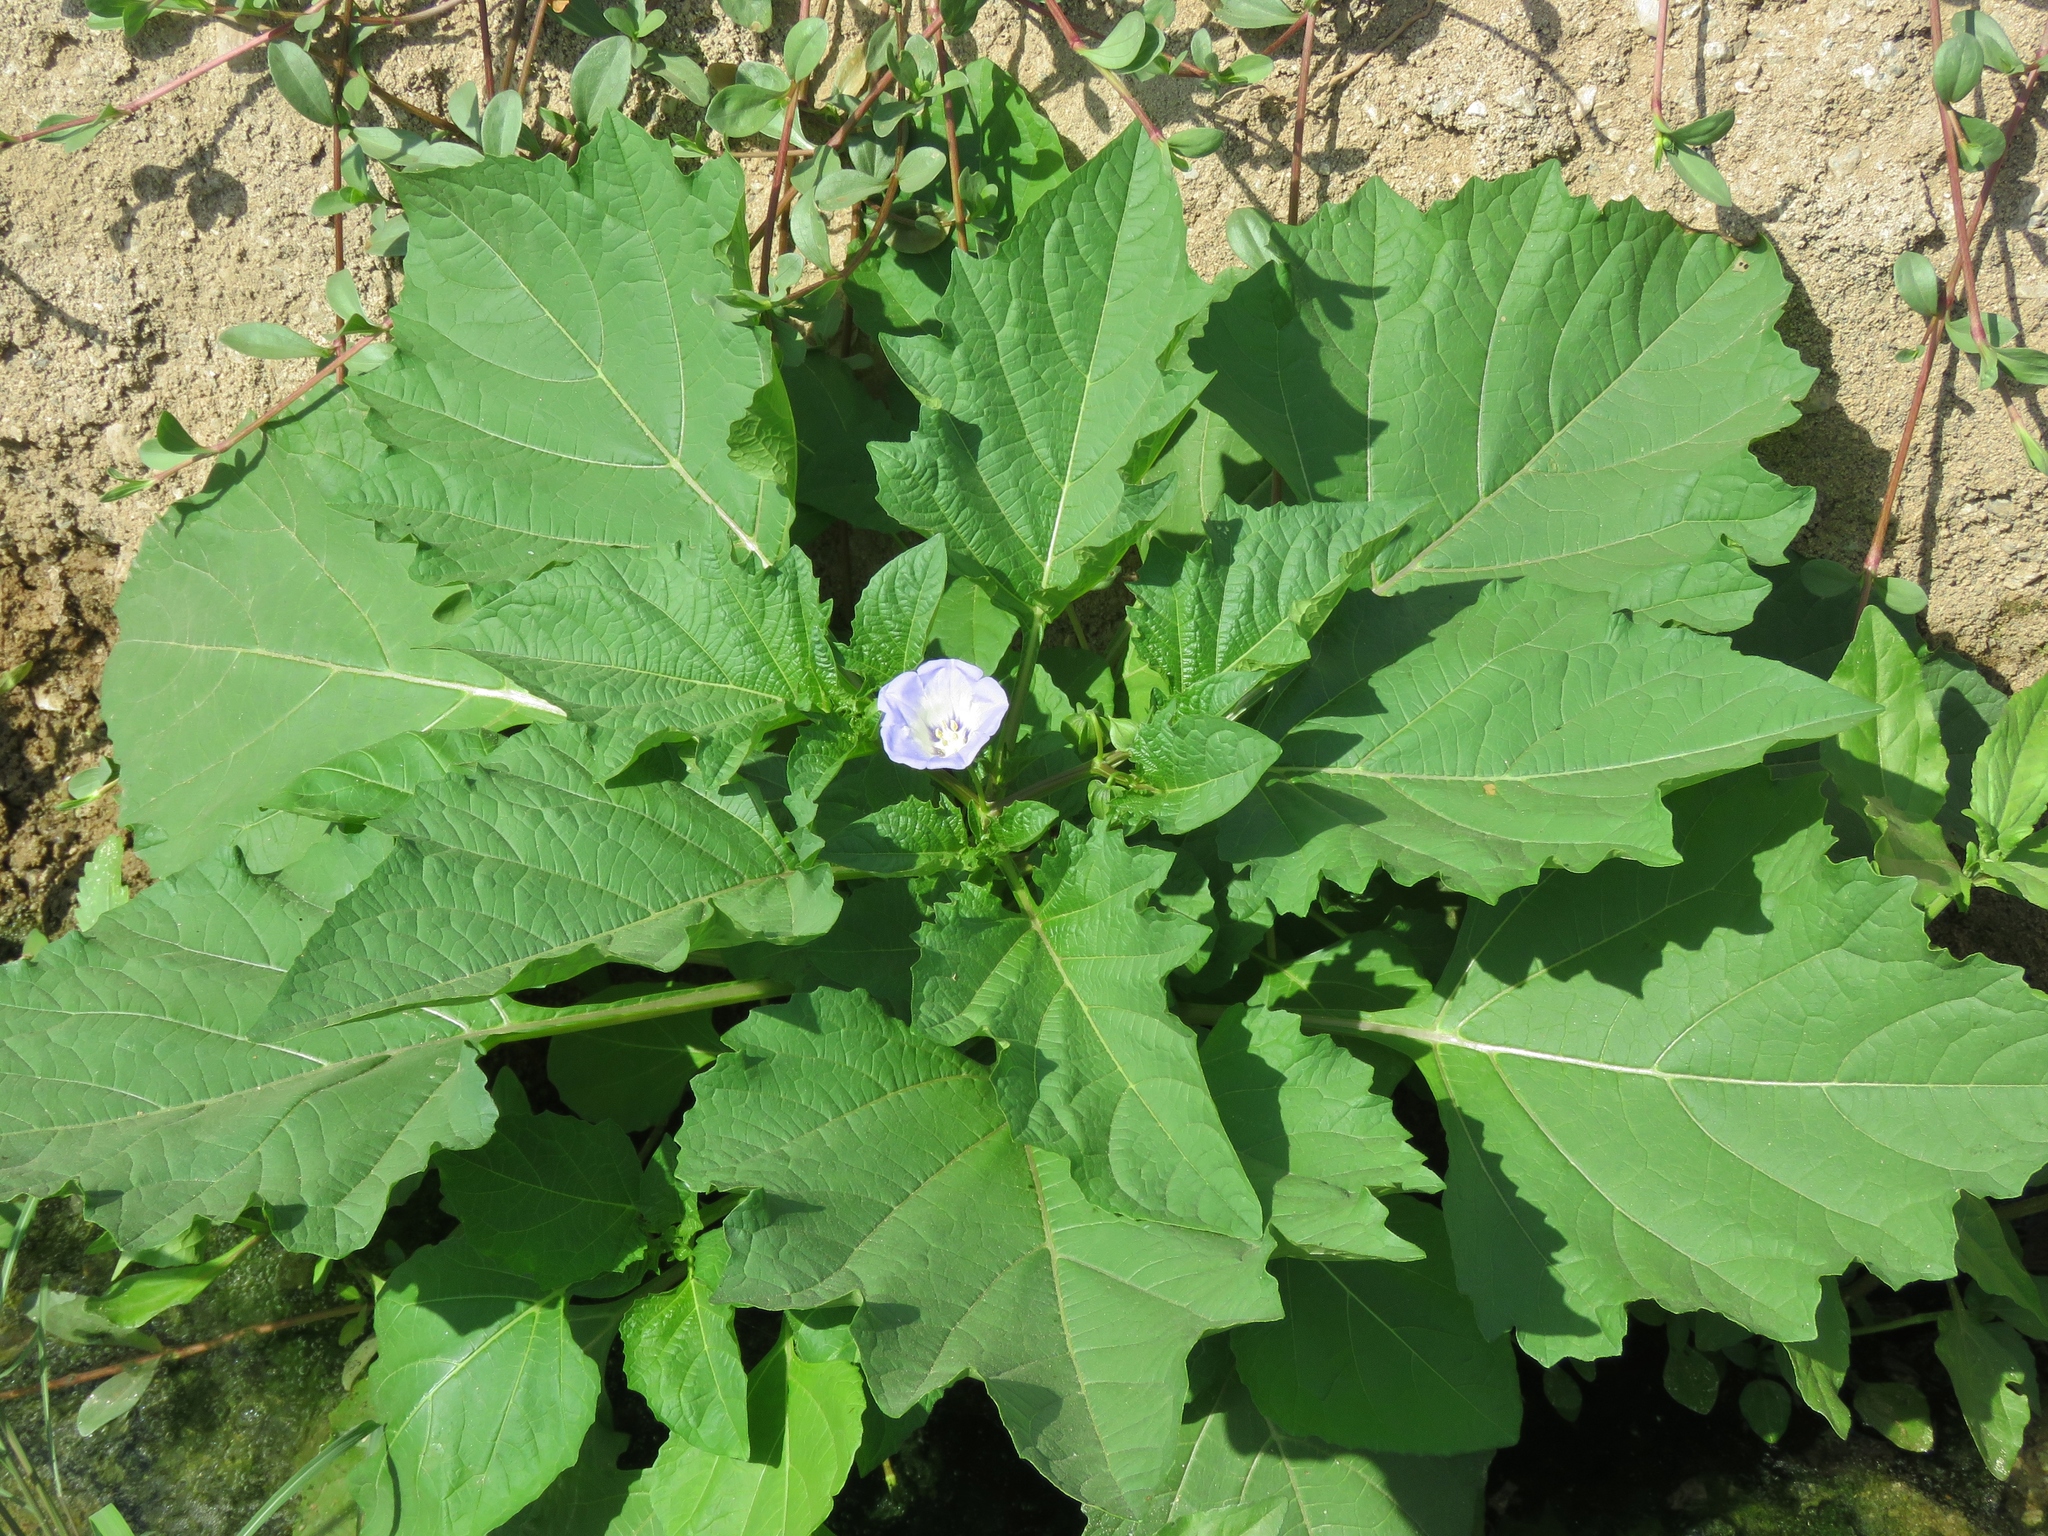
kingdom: Plantae
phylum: Tracheophyta
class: Magnoliopsida
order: Solanales
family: Solanaceae
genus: Nicandra
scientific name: Nicandra physalodes
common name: Apple-of-peru
